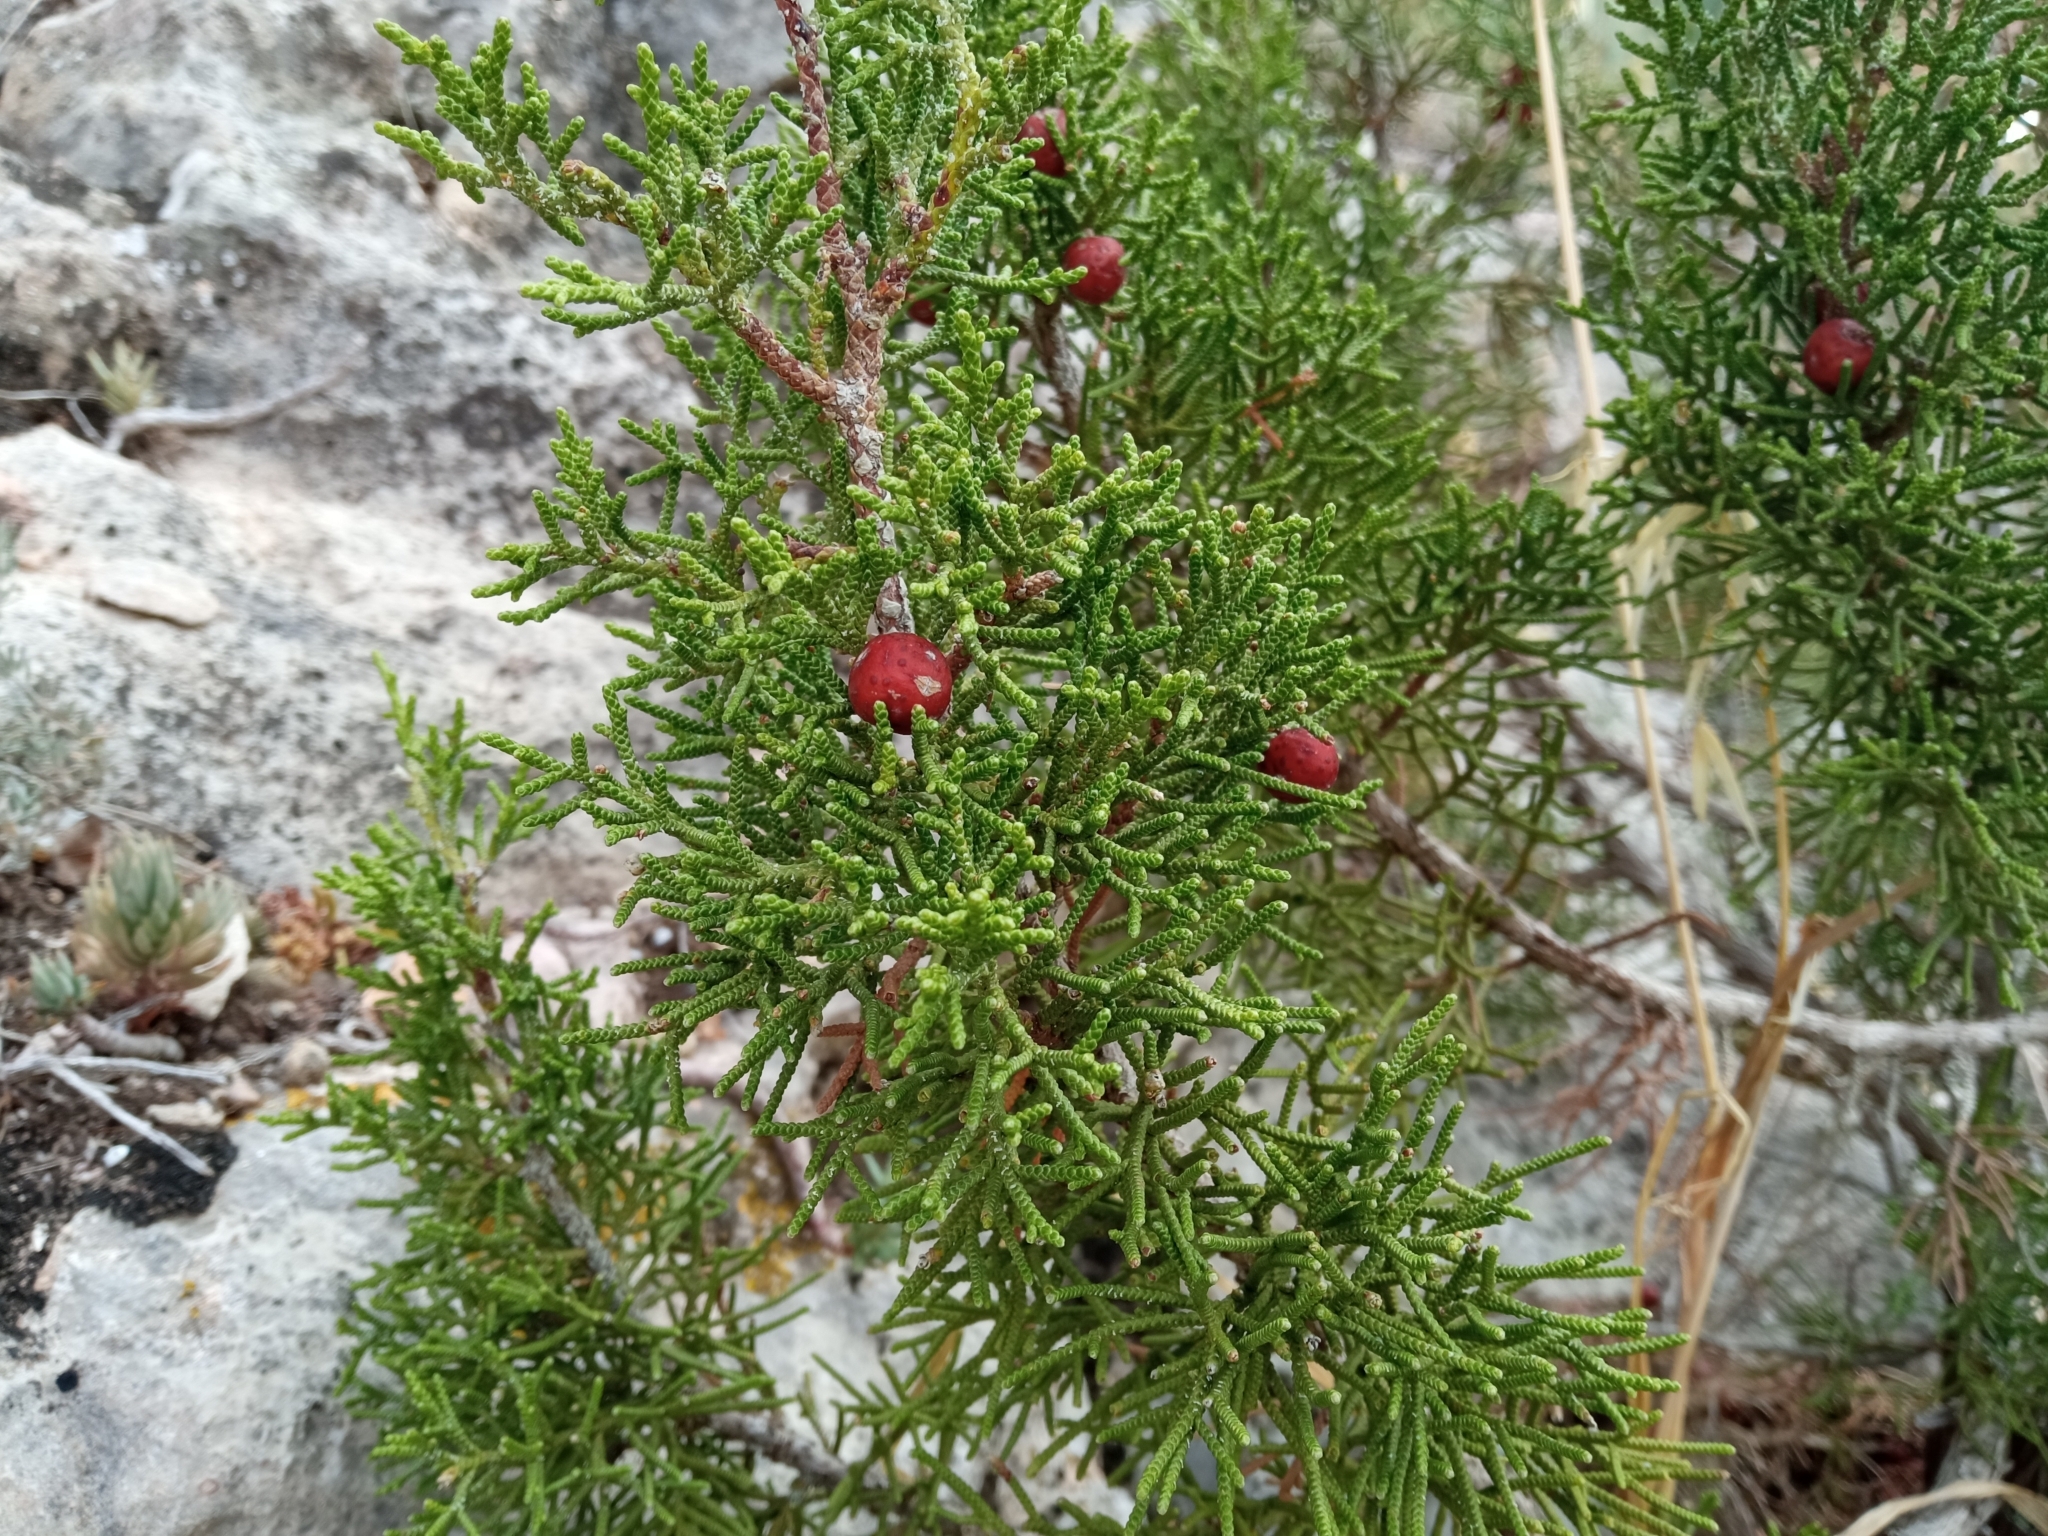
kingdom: Plantae
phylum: Tracheophyta
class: Pinopsida
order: Pinales
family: Cupressaceae
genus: Juniperus
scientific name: Juniperus phoenicea
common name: Phoenician juniper
